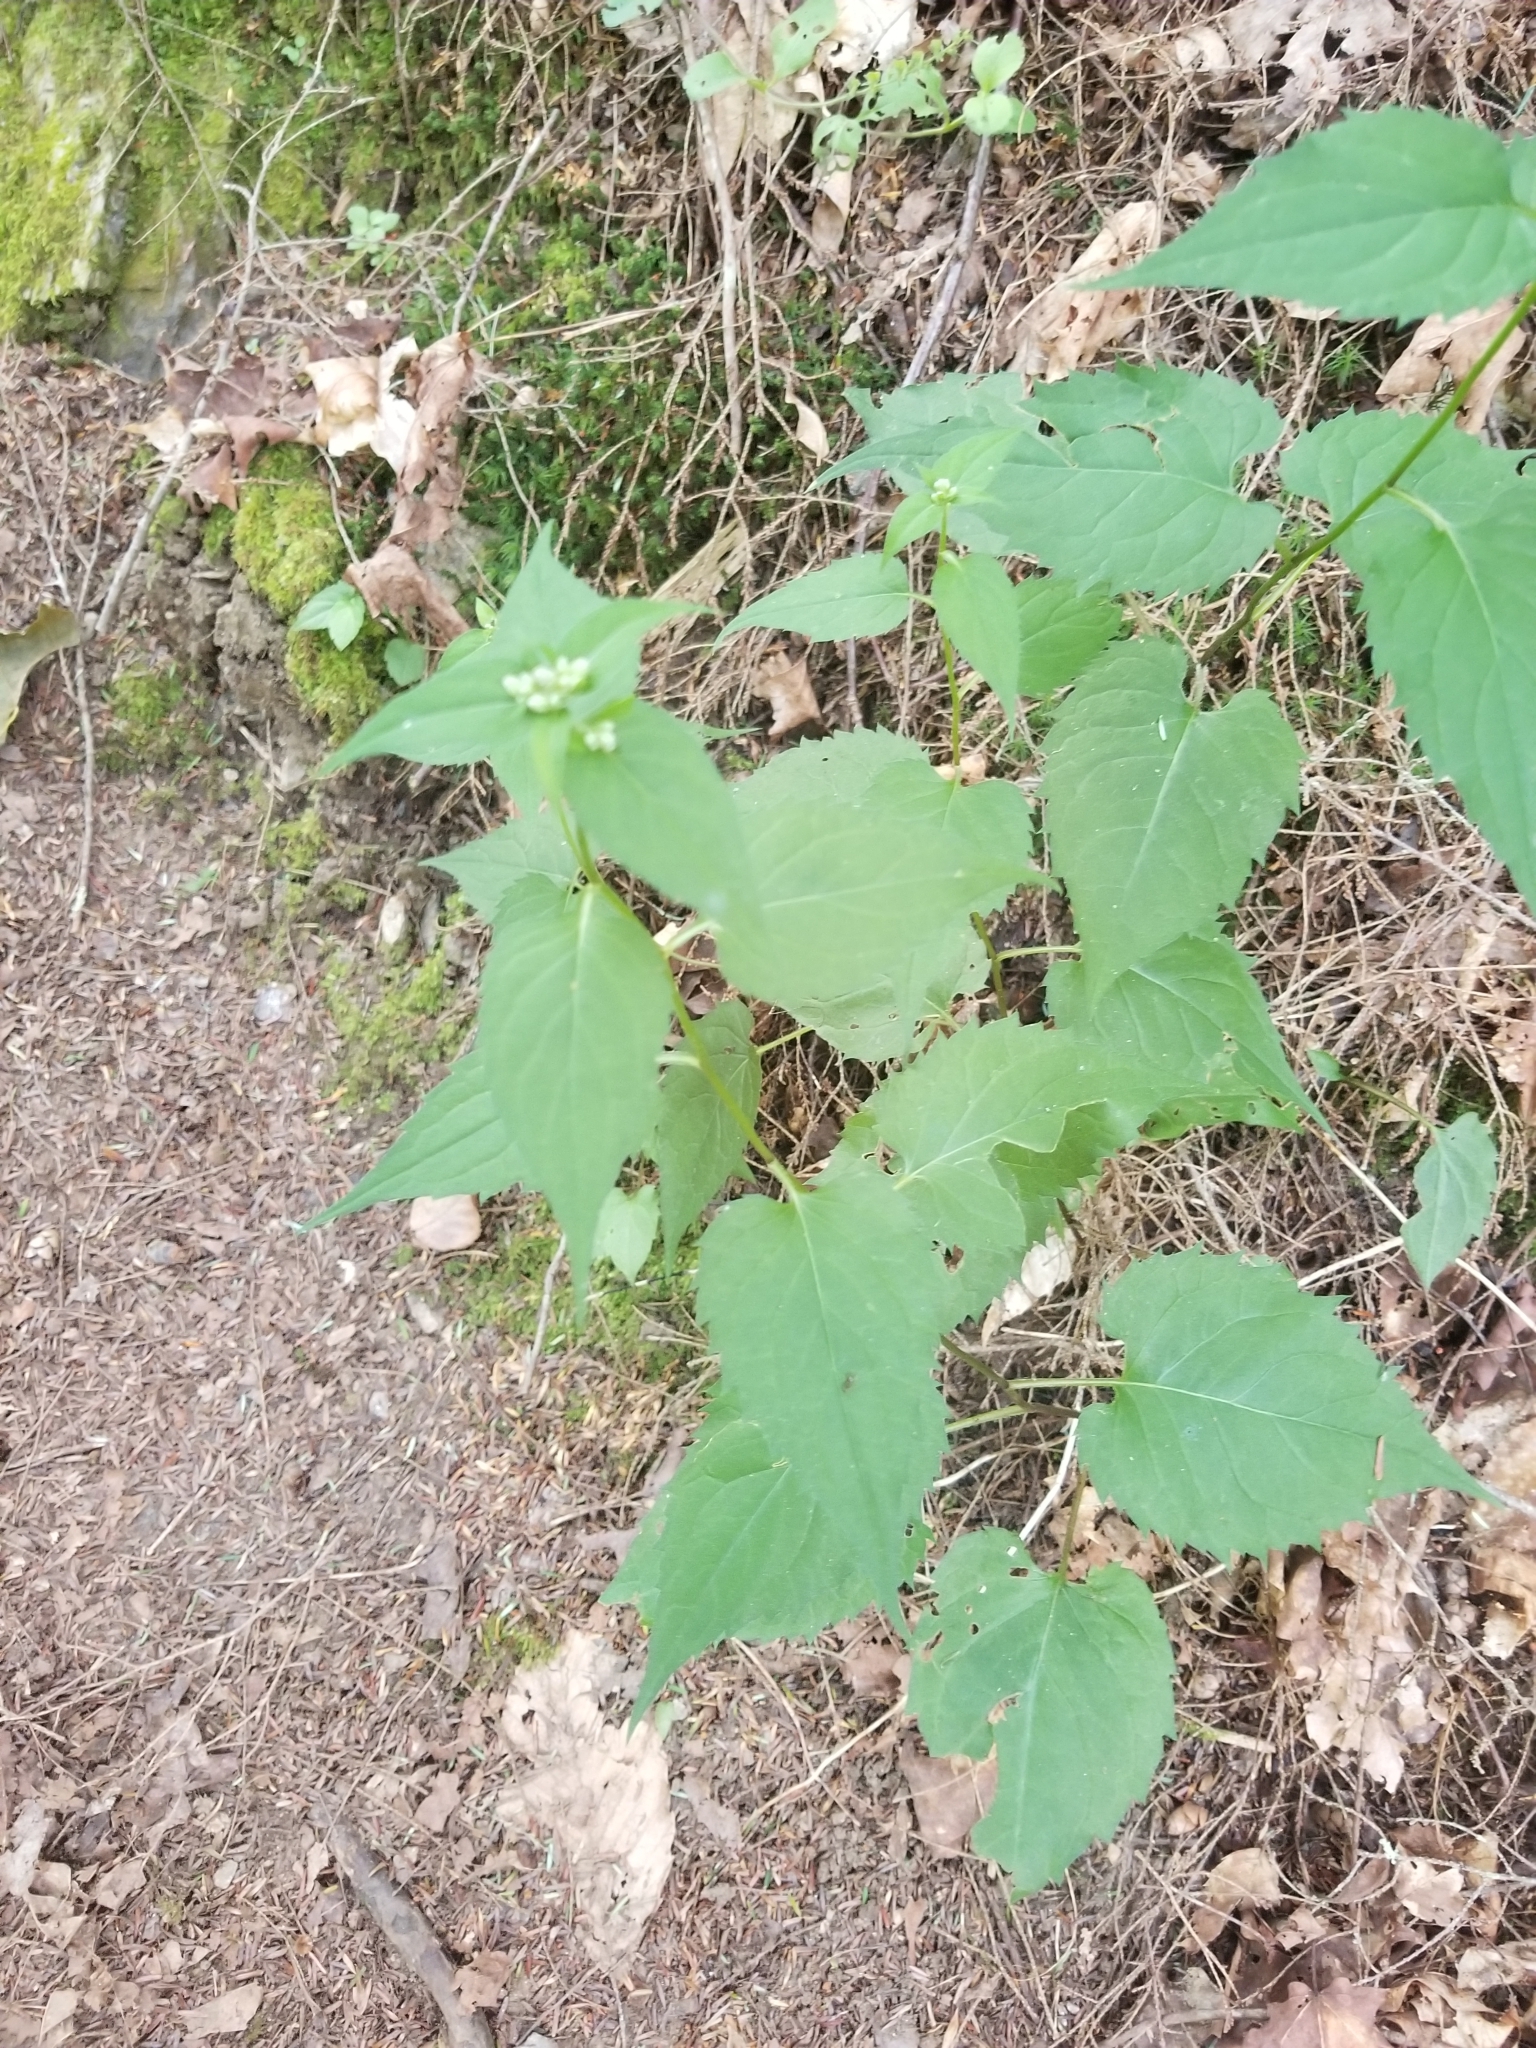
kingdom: Plantae
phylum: Tracheophyta
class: Magnoliopsida
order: Asterales
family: Asteraceae
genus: Eurybia
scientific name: Eurybia divaricata
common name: White wood aster
